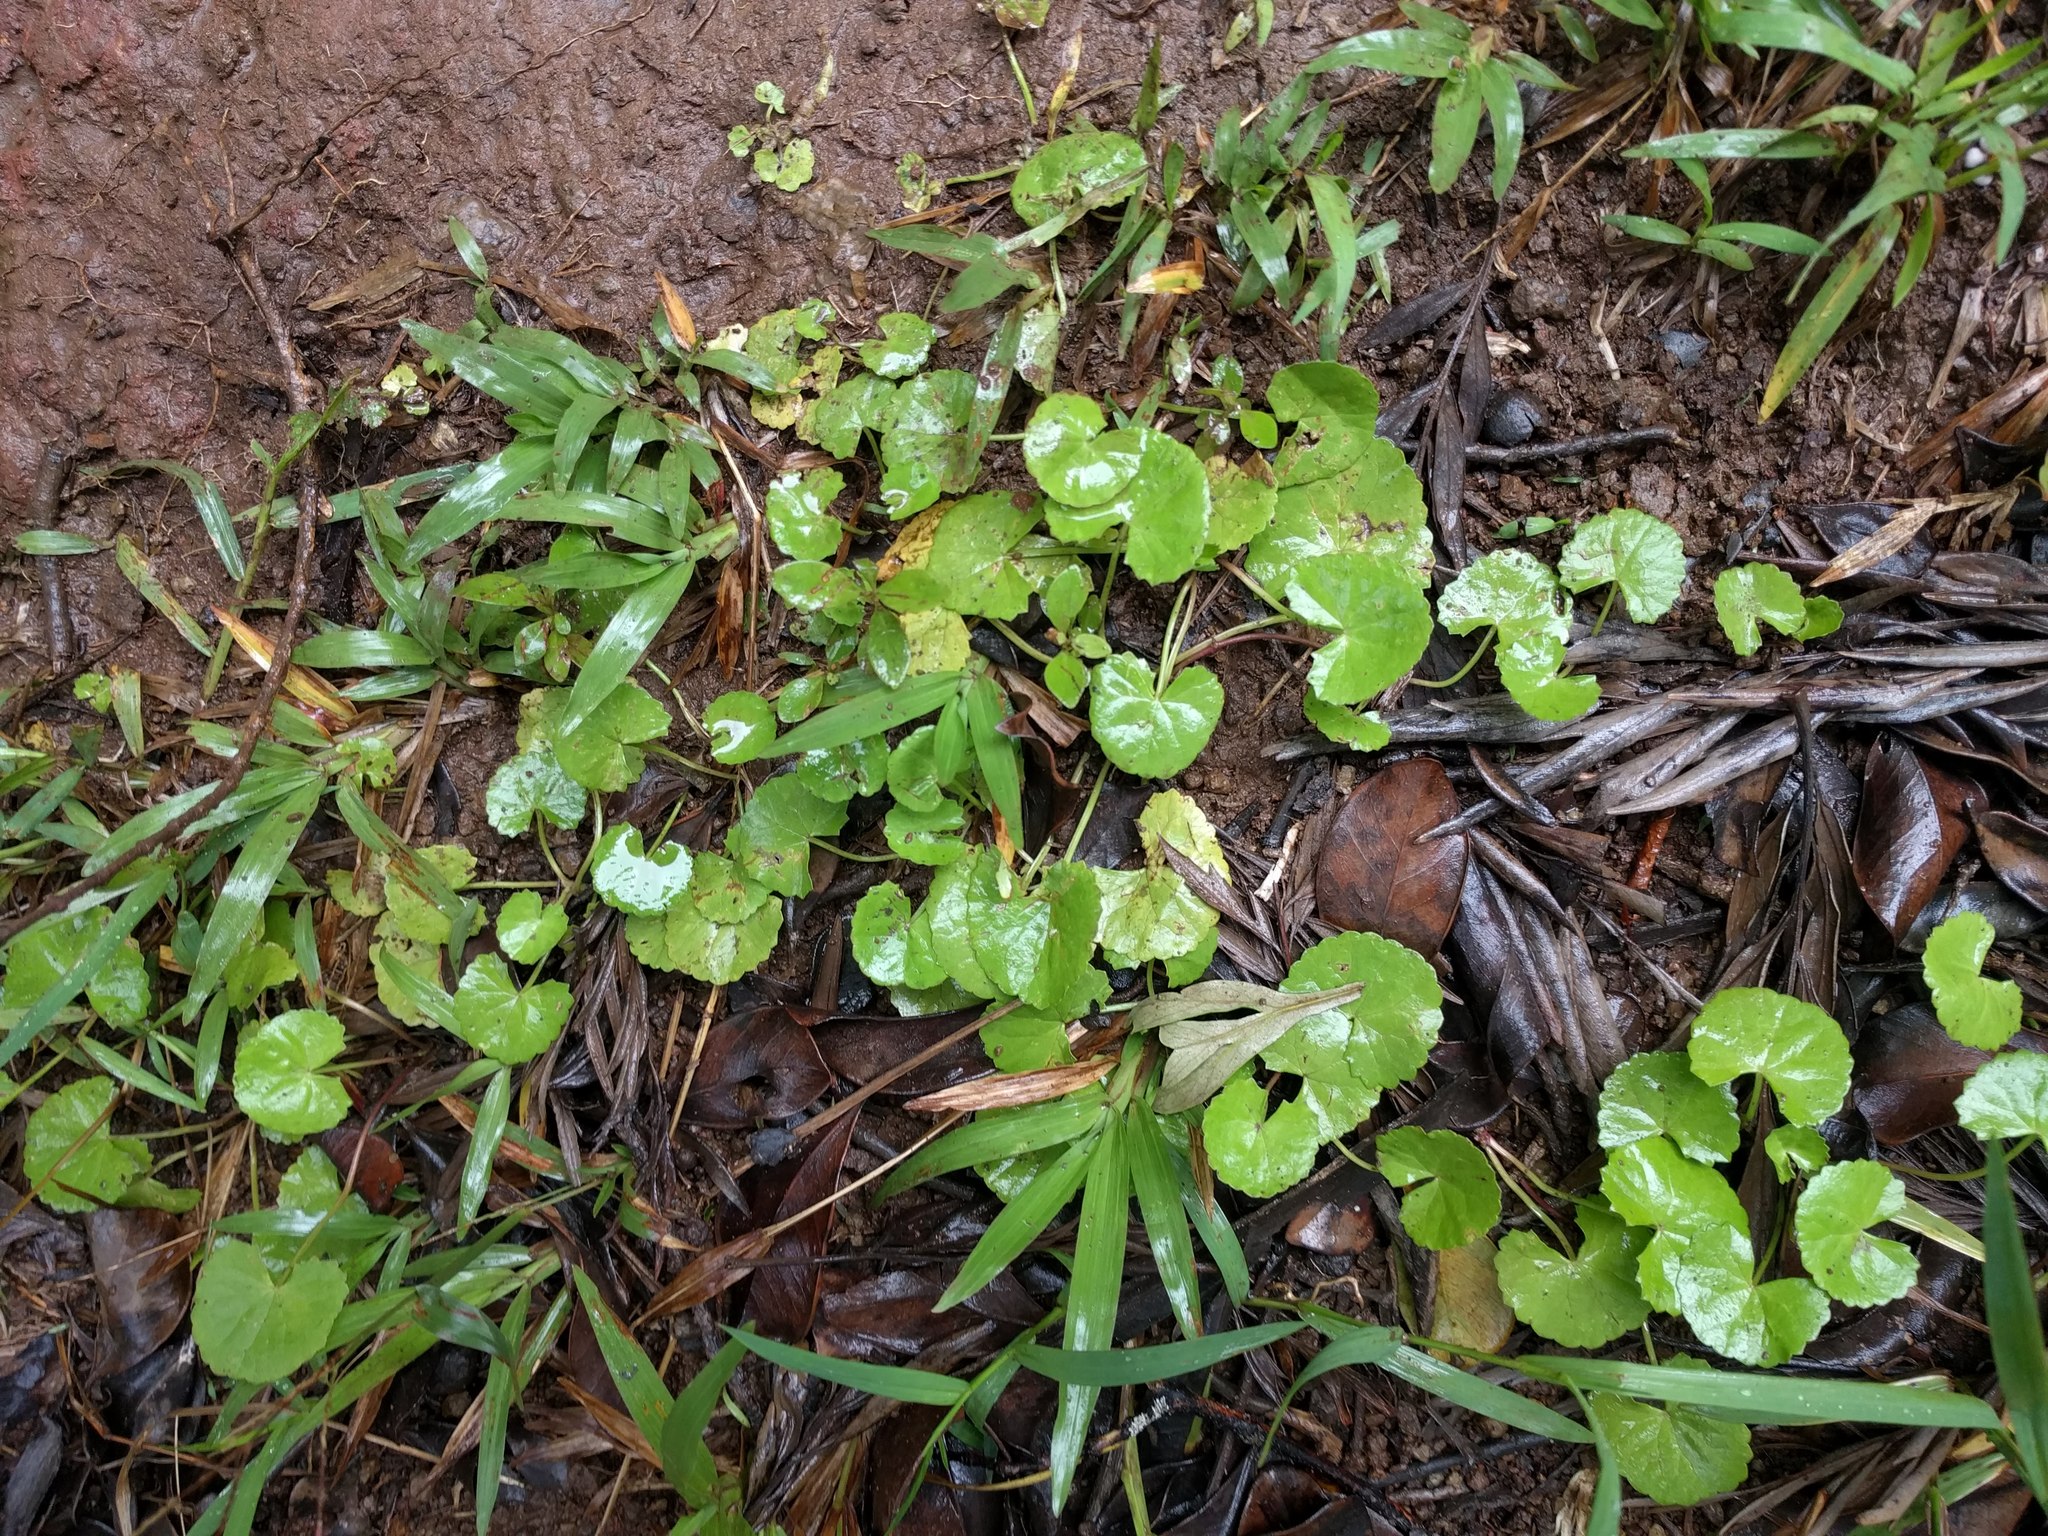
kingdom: Plantae
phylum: Tracheophyta
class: Magnoliopsida
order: Apiales
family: Apiaceae
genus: Centella
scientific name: Centella asiatica
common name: Spadeleaf
